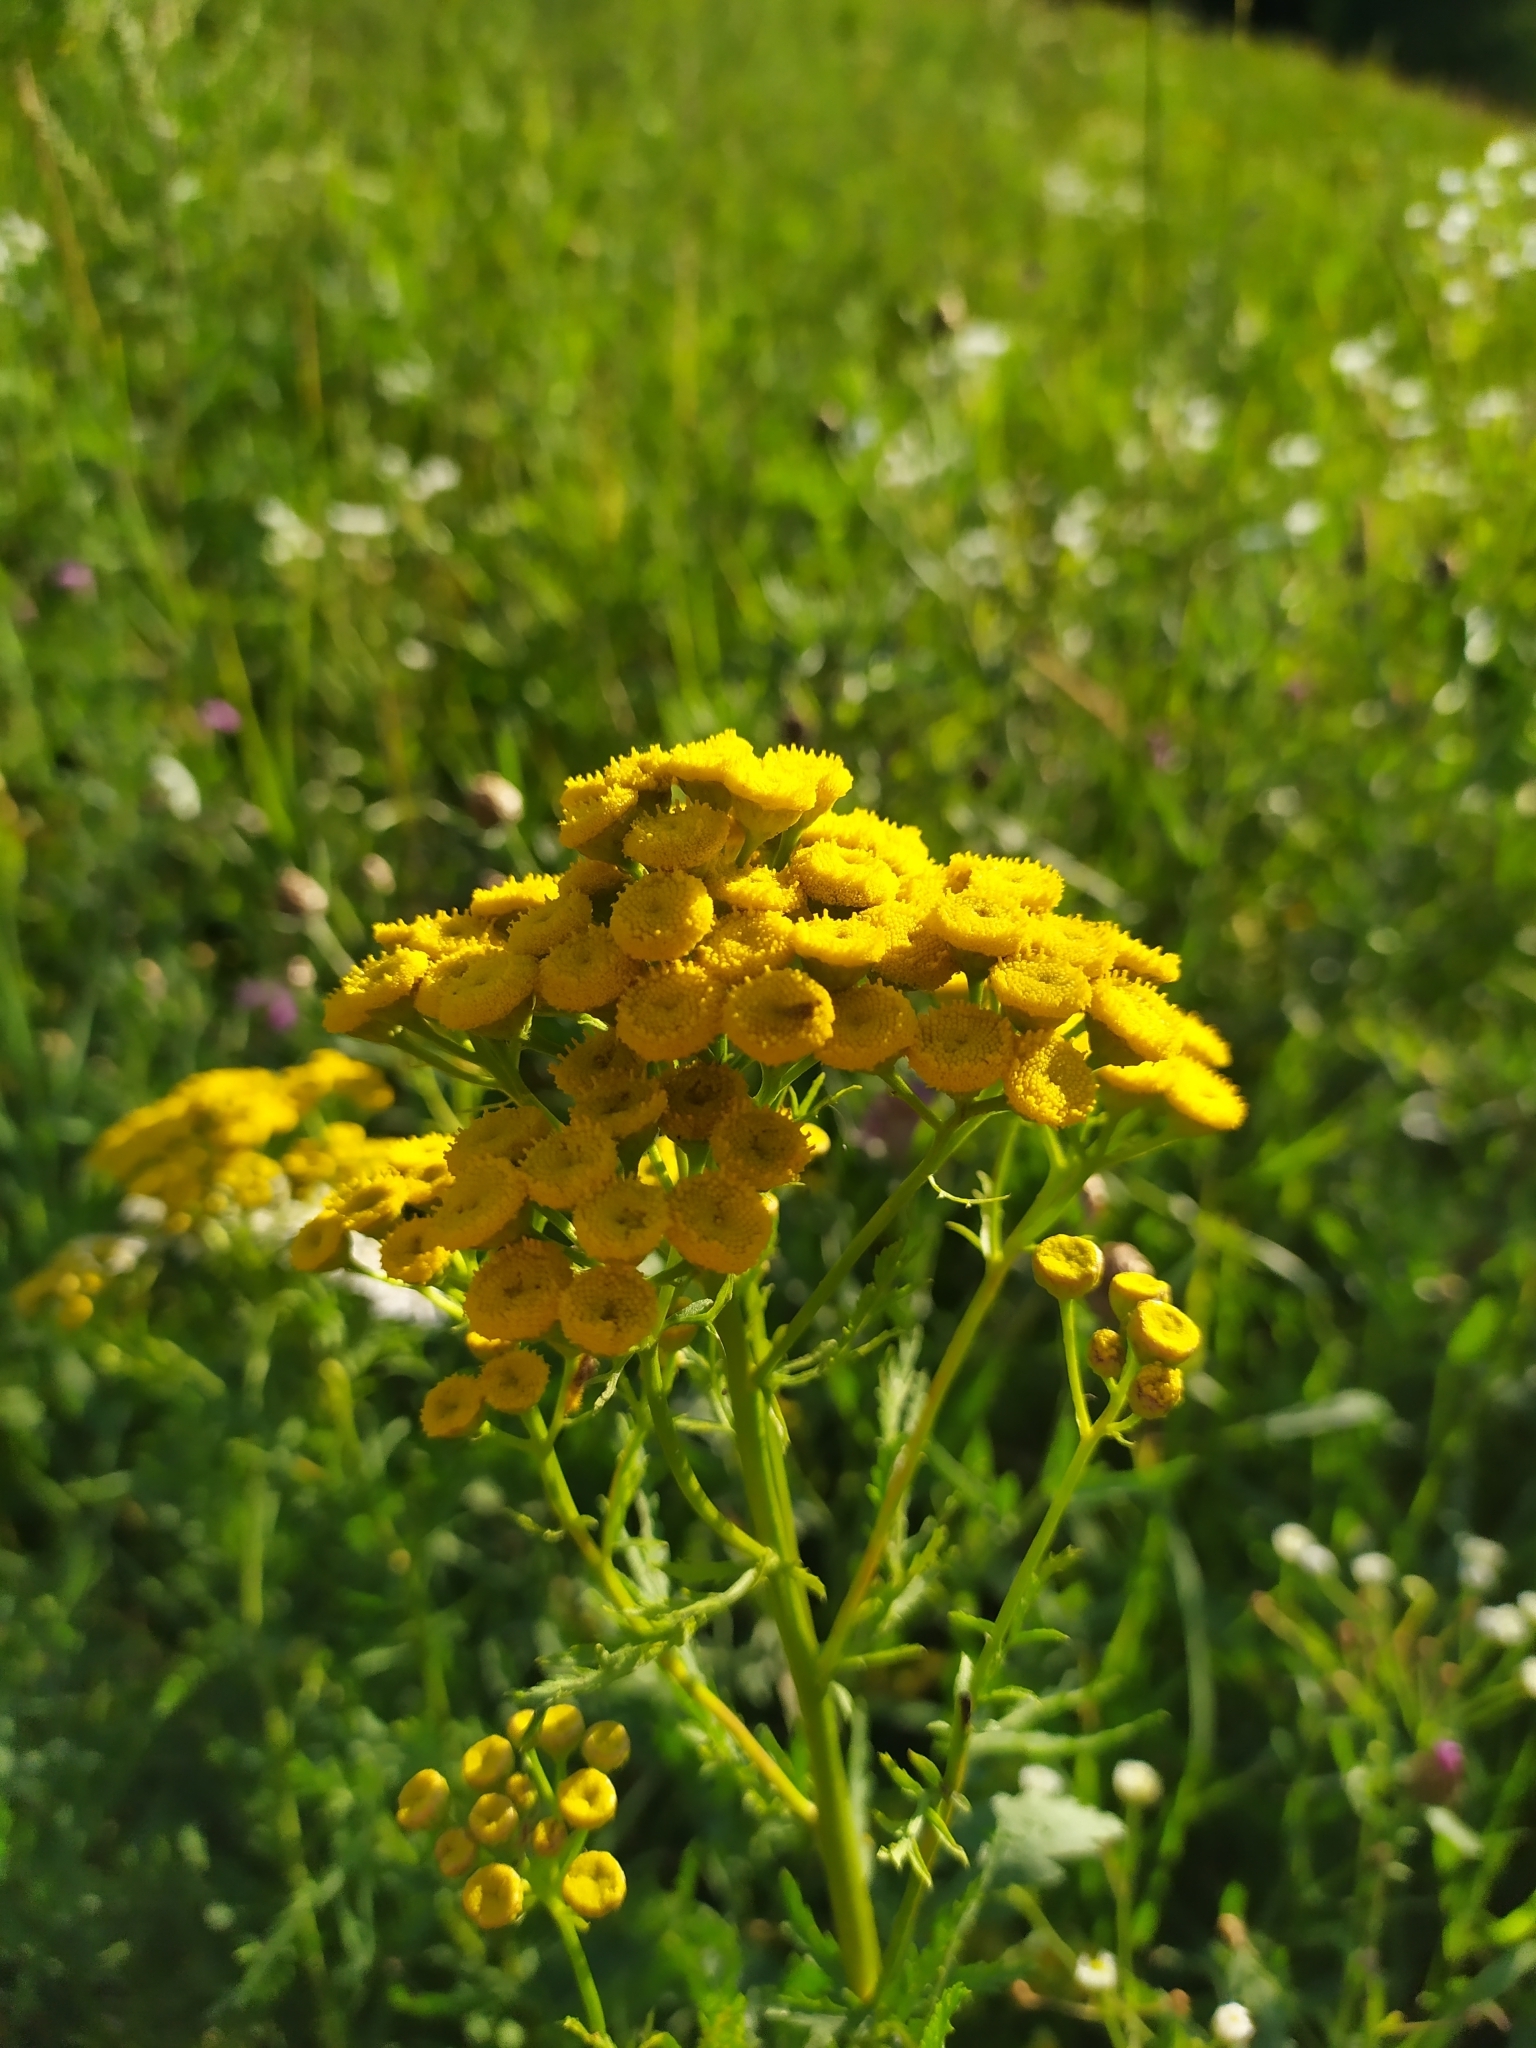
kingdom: Plantae
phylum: Tracheophyta
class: Magnoliopsida
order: Asterales
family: Asteraceae
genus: Tanacetum
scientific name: Tanacetum vulgare
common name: Common tansy
